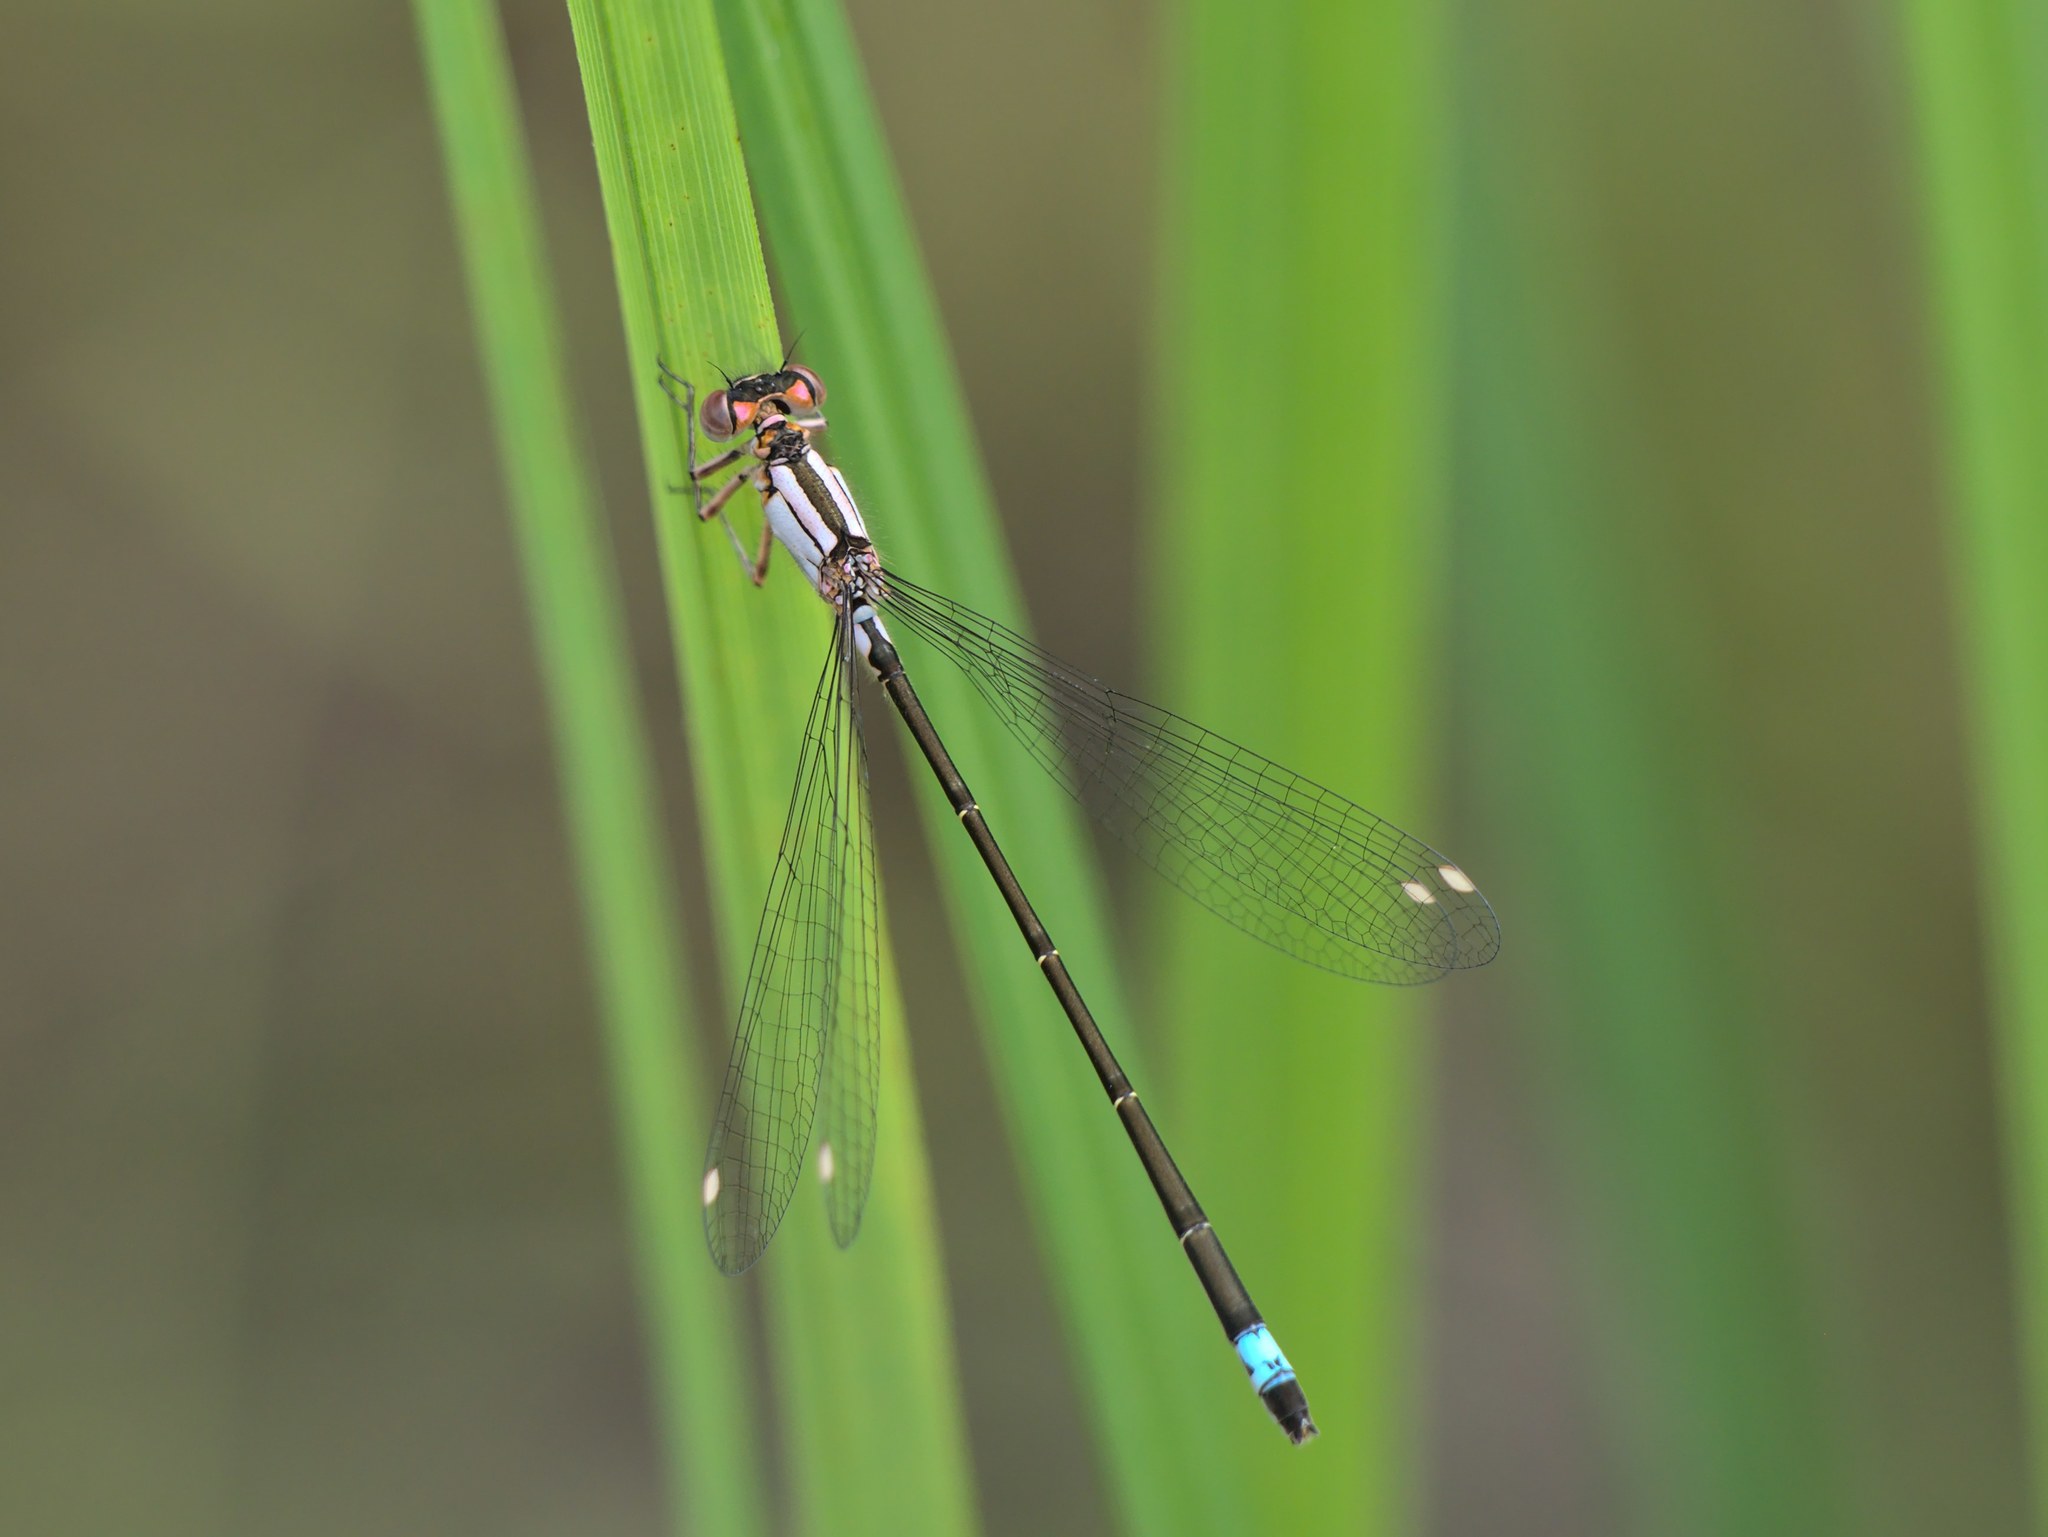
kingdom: Animalia
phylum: Arthropoda
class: Insecta
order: Odonata
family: Coenagrionidae
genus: Ischnura
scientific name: Ischnura cervula
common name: Pacific forktail
